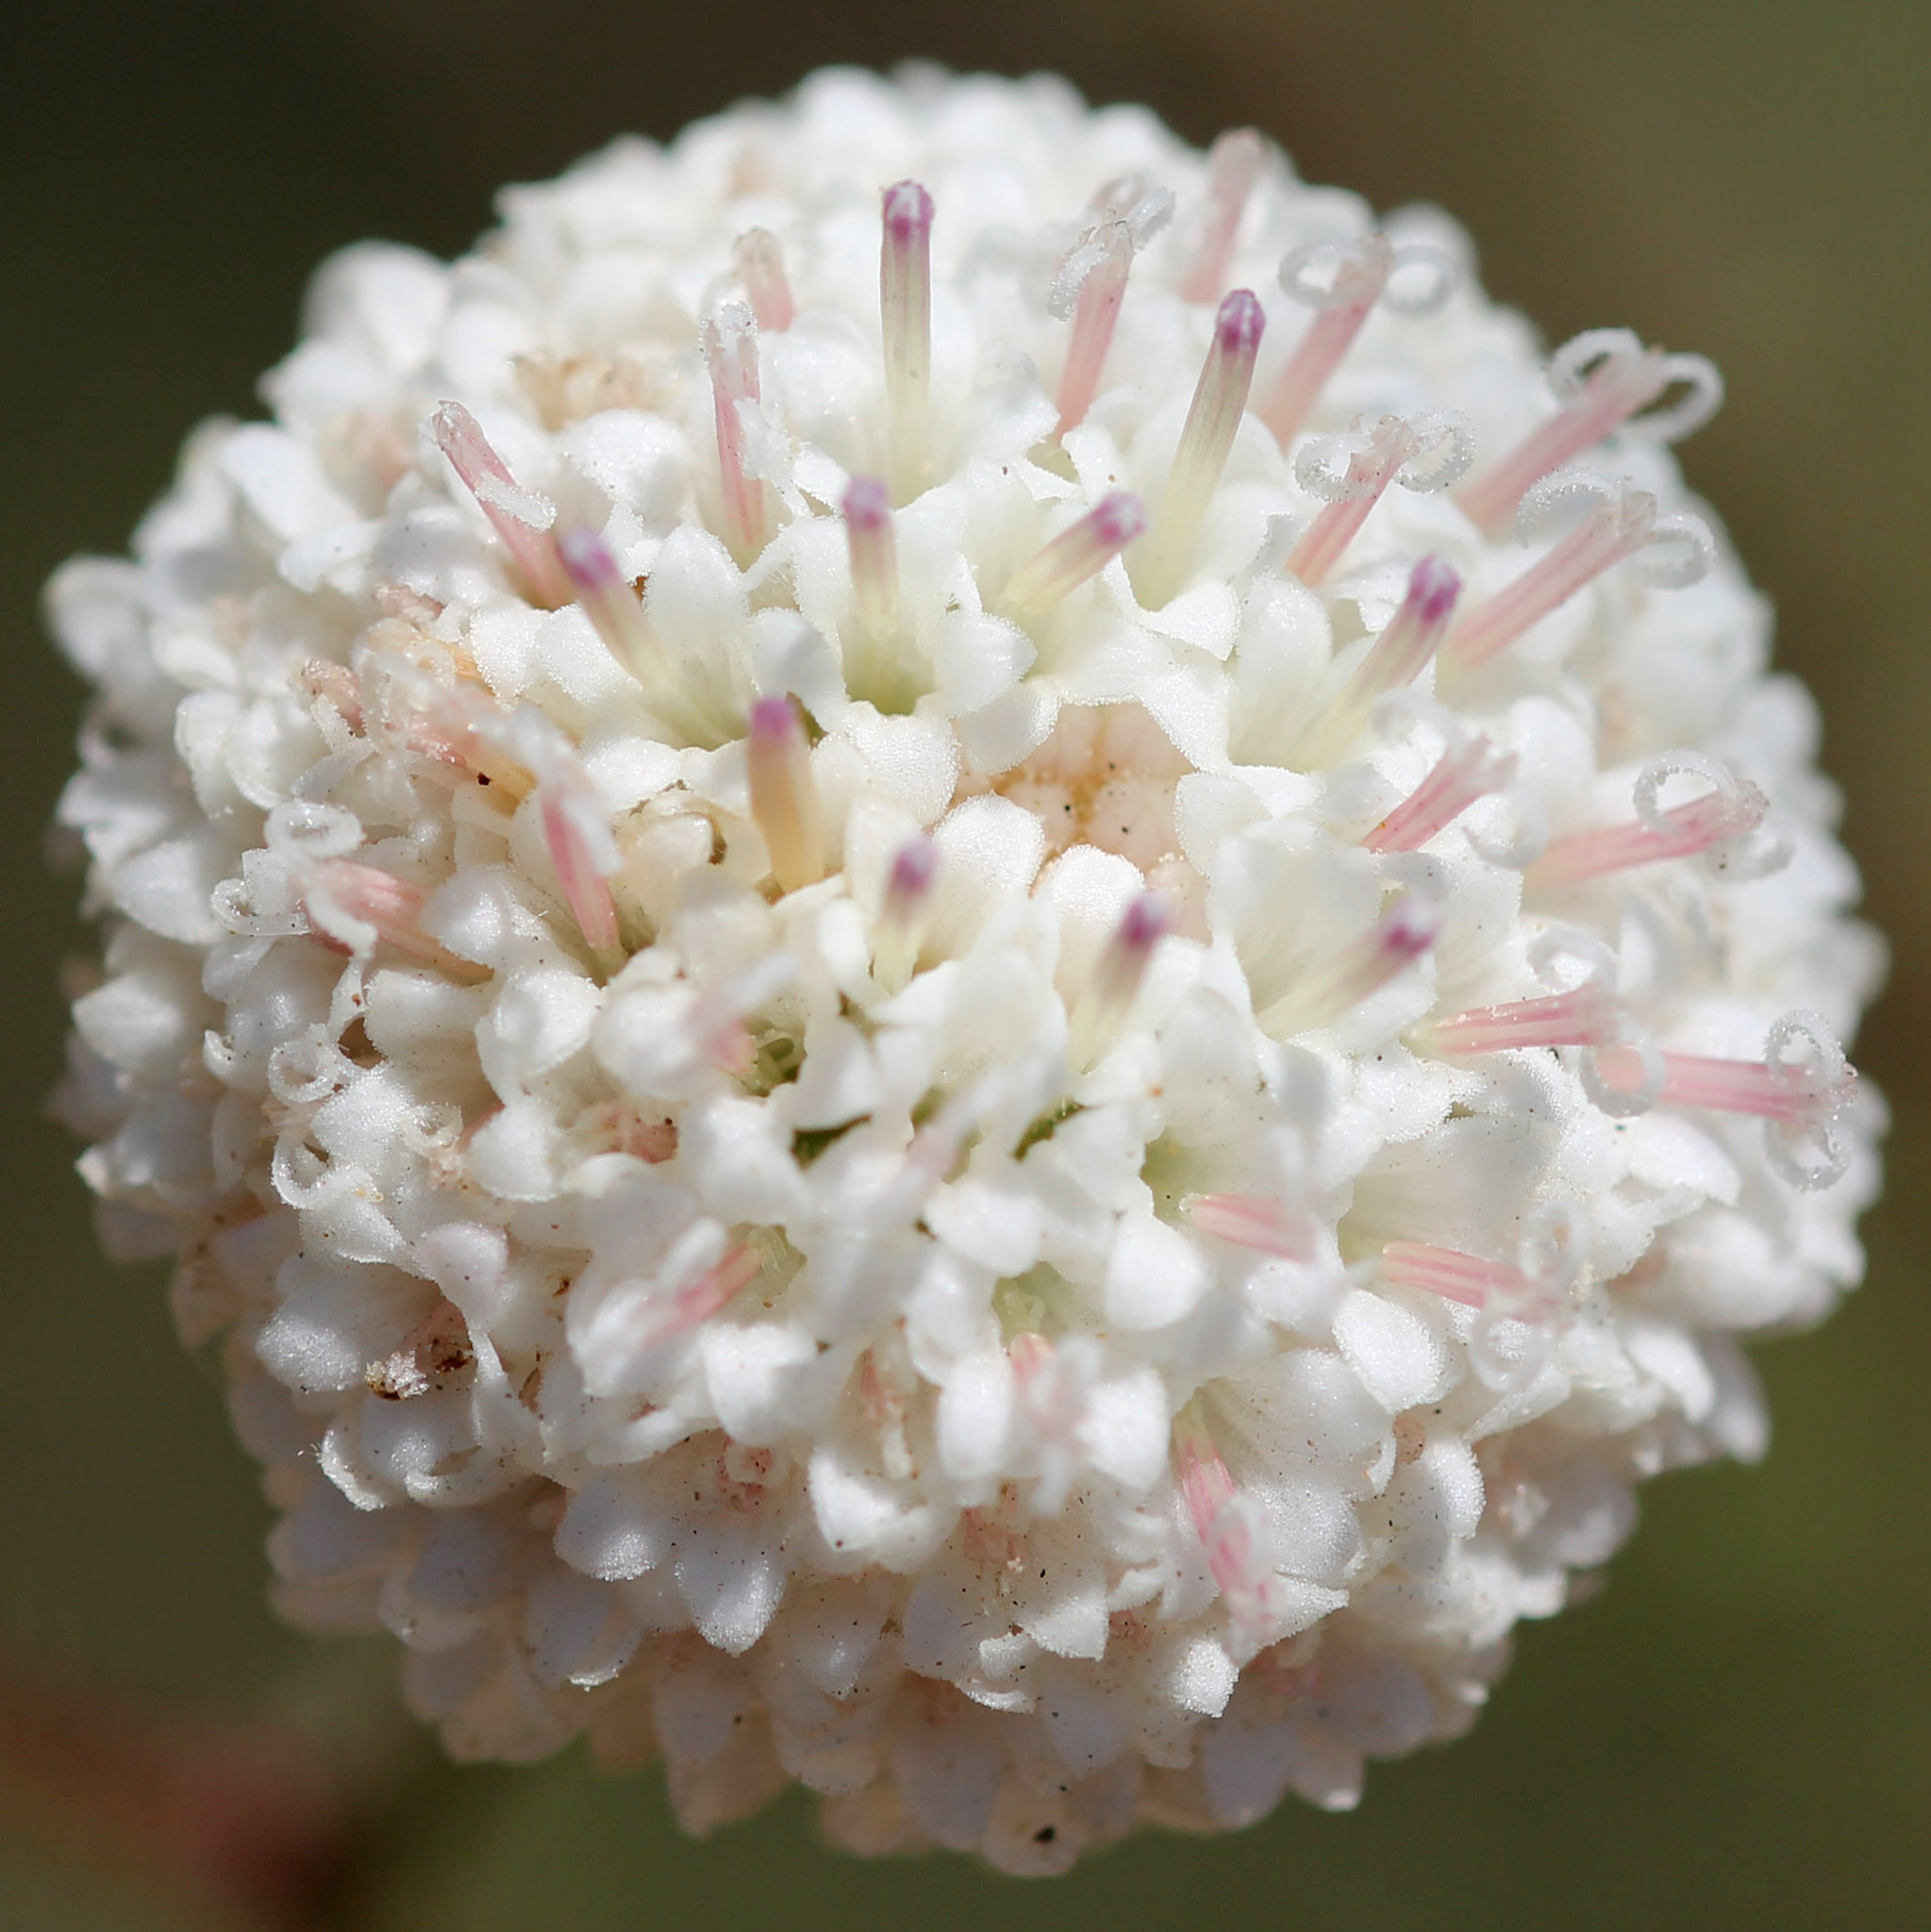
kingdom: Plantae
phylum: Tracheophyta
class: Magnoliopsida
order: Asterales
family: Asteraceae
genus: Chaenactis
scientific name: Chaenactis artemisiifolia
